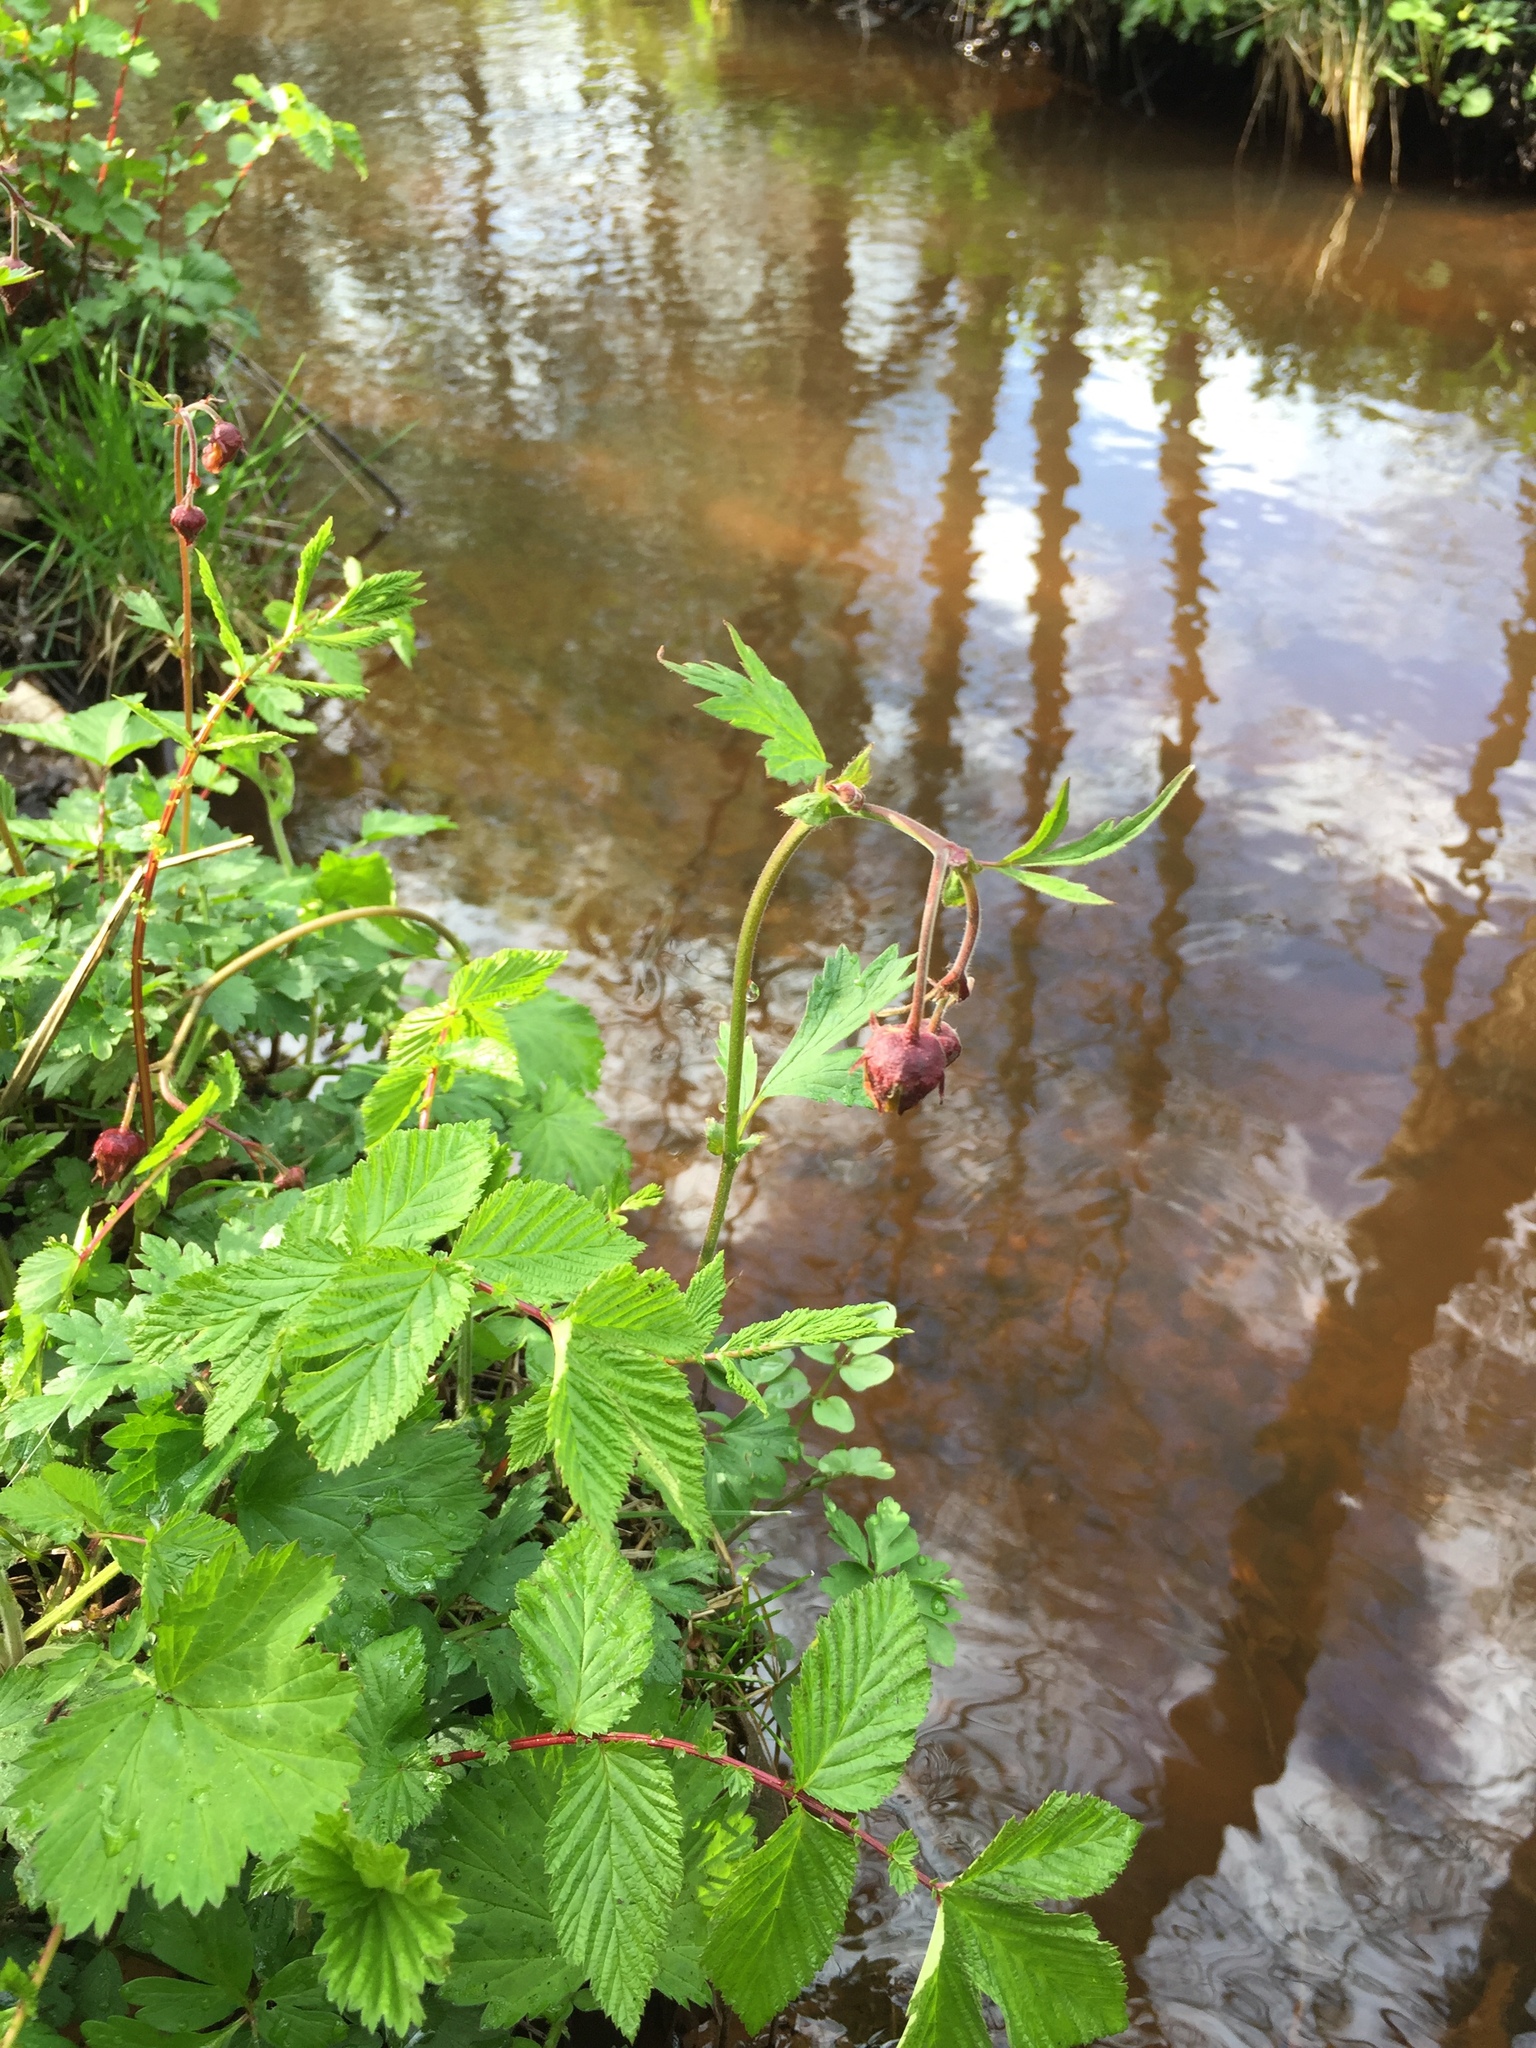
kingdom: Plantae
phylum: Tracheophyta
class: Magnoliopsida
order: Rosales
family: Rosaceae
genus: Geum
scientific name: Geum rivale
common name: Water avens
